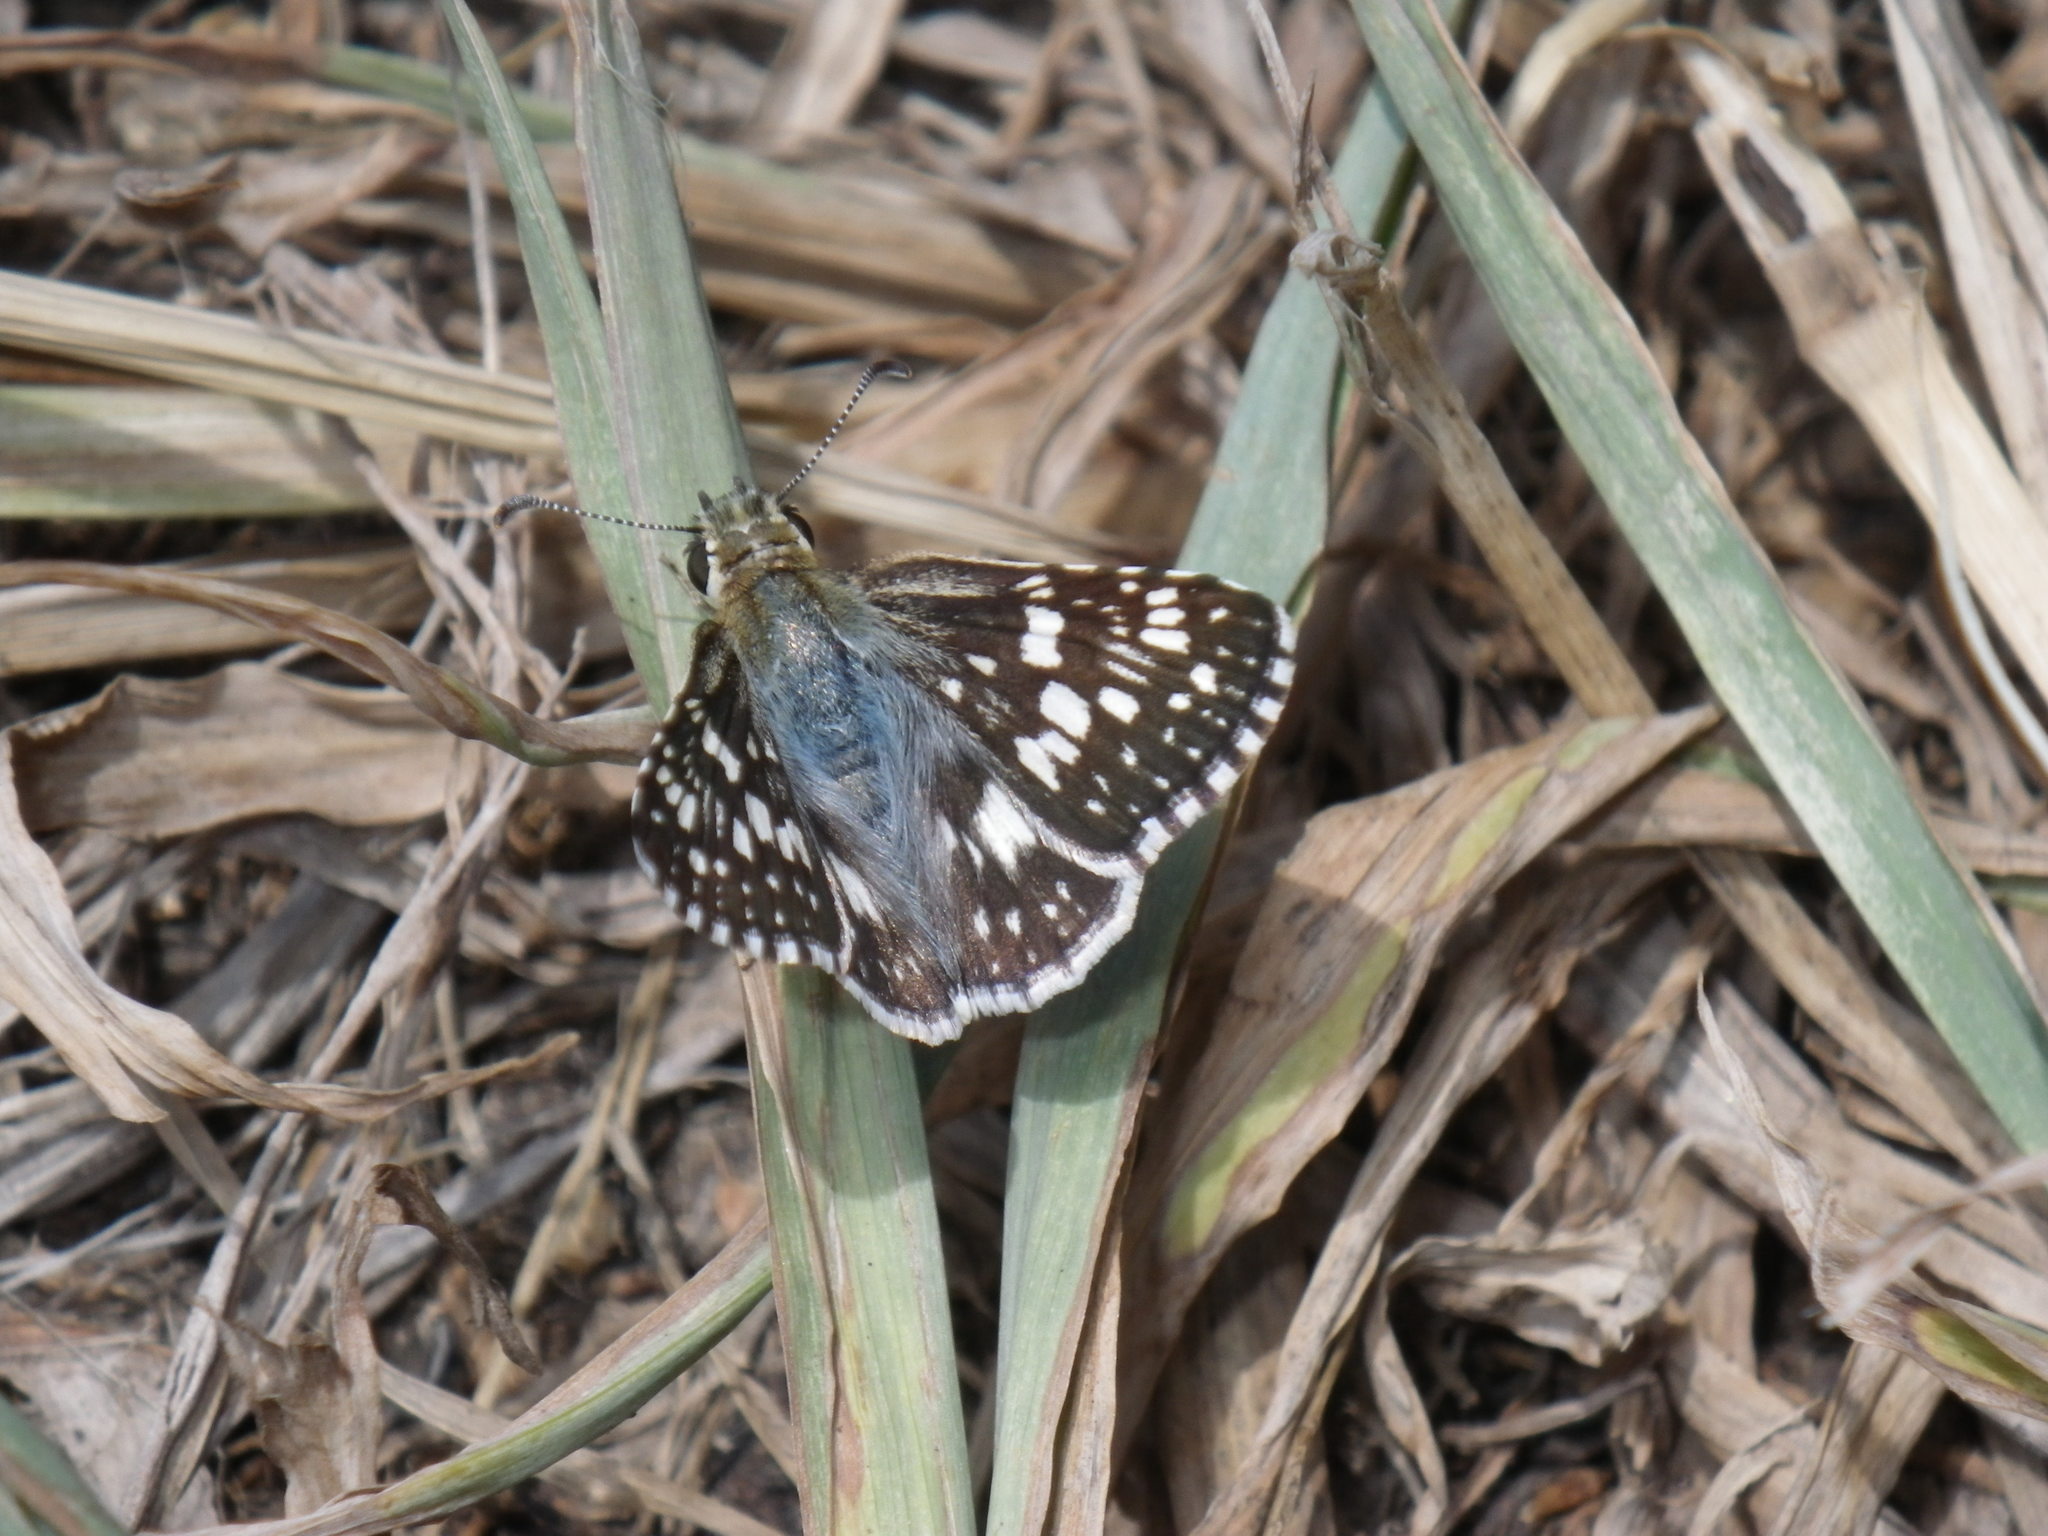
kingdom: Animalia
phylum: Arthropoda
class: Insecta
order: Lepidoptera
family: Hesperiidae
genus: Burnsius
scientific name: Burnsius communis
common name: Common checkered-skipper
